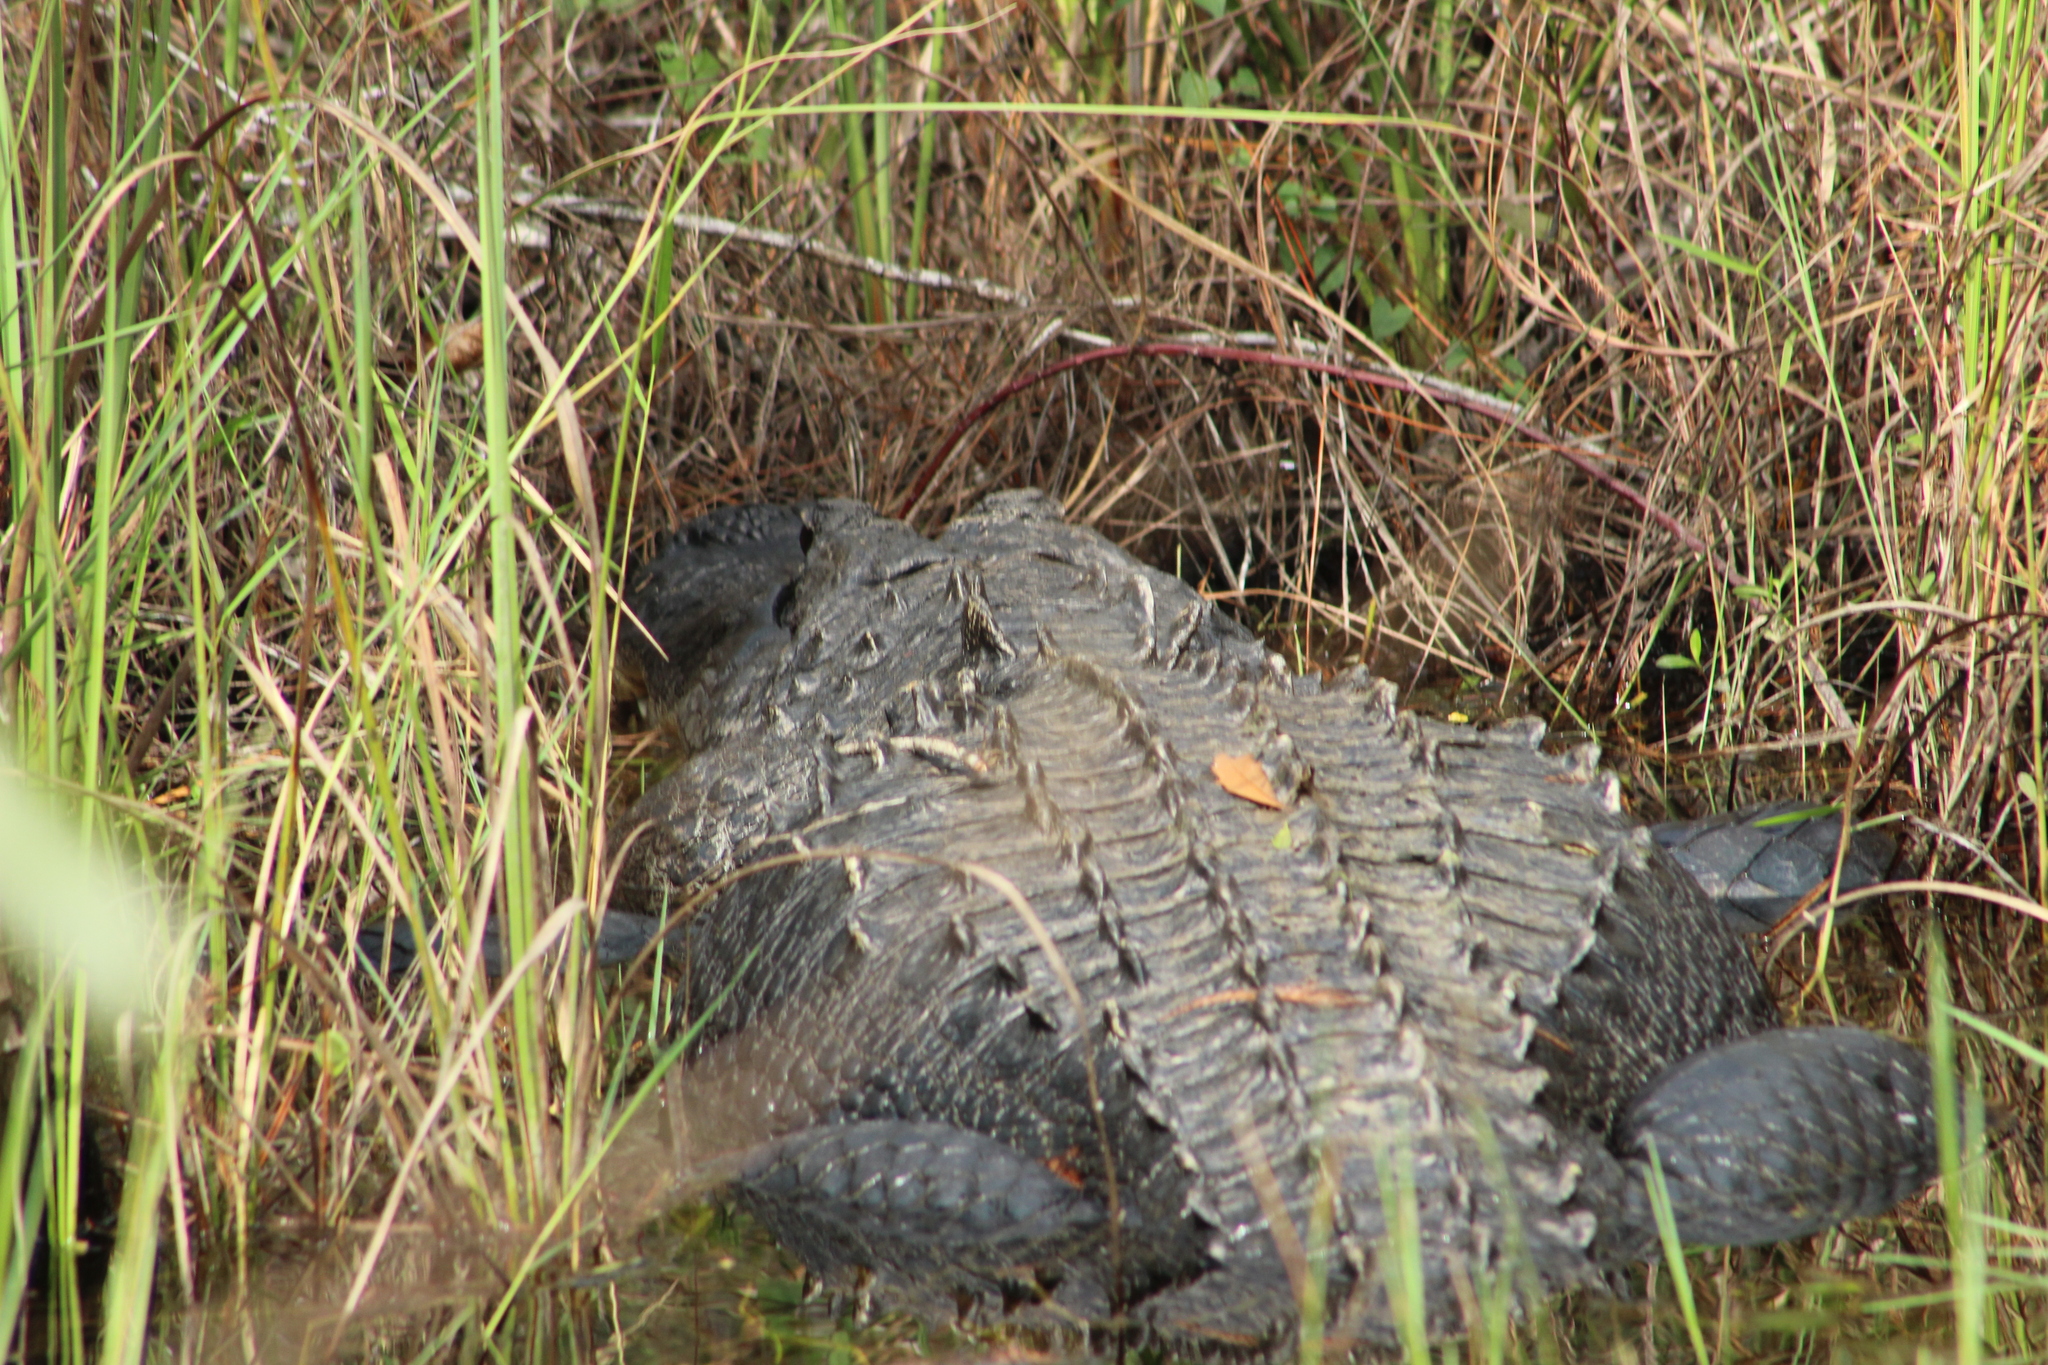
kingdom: Animalia
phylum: Chordata
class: Crocodylia
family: Alligatoridae
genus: Alligator
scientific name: Alligator mississippiensis
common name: American alligator
